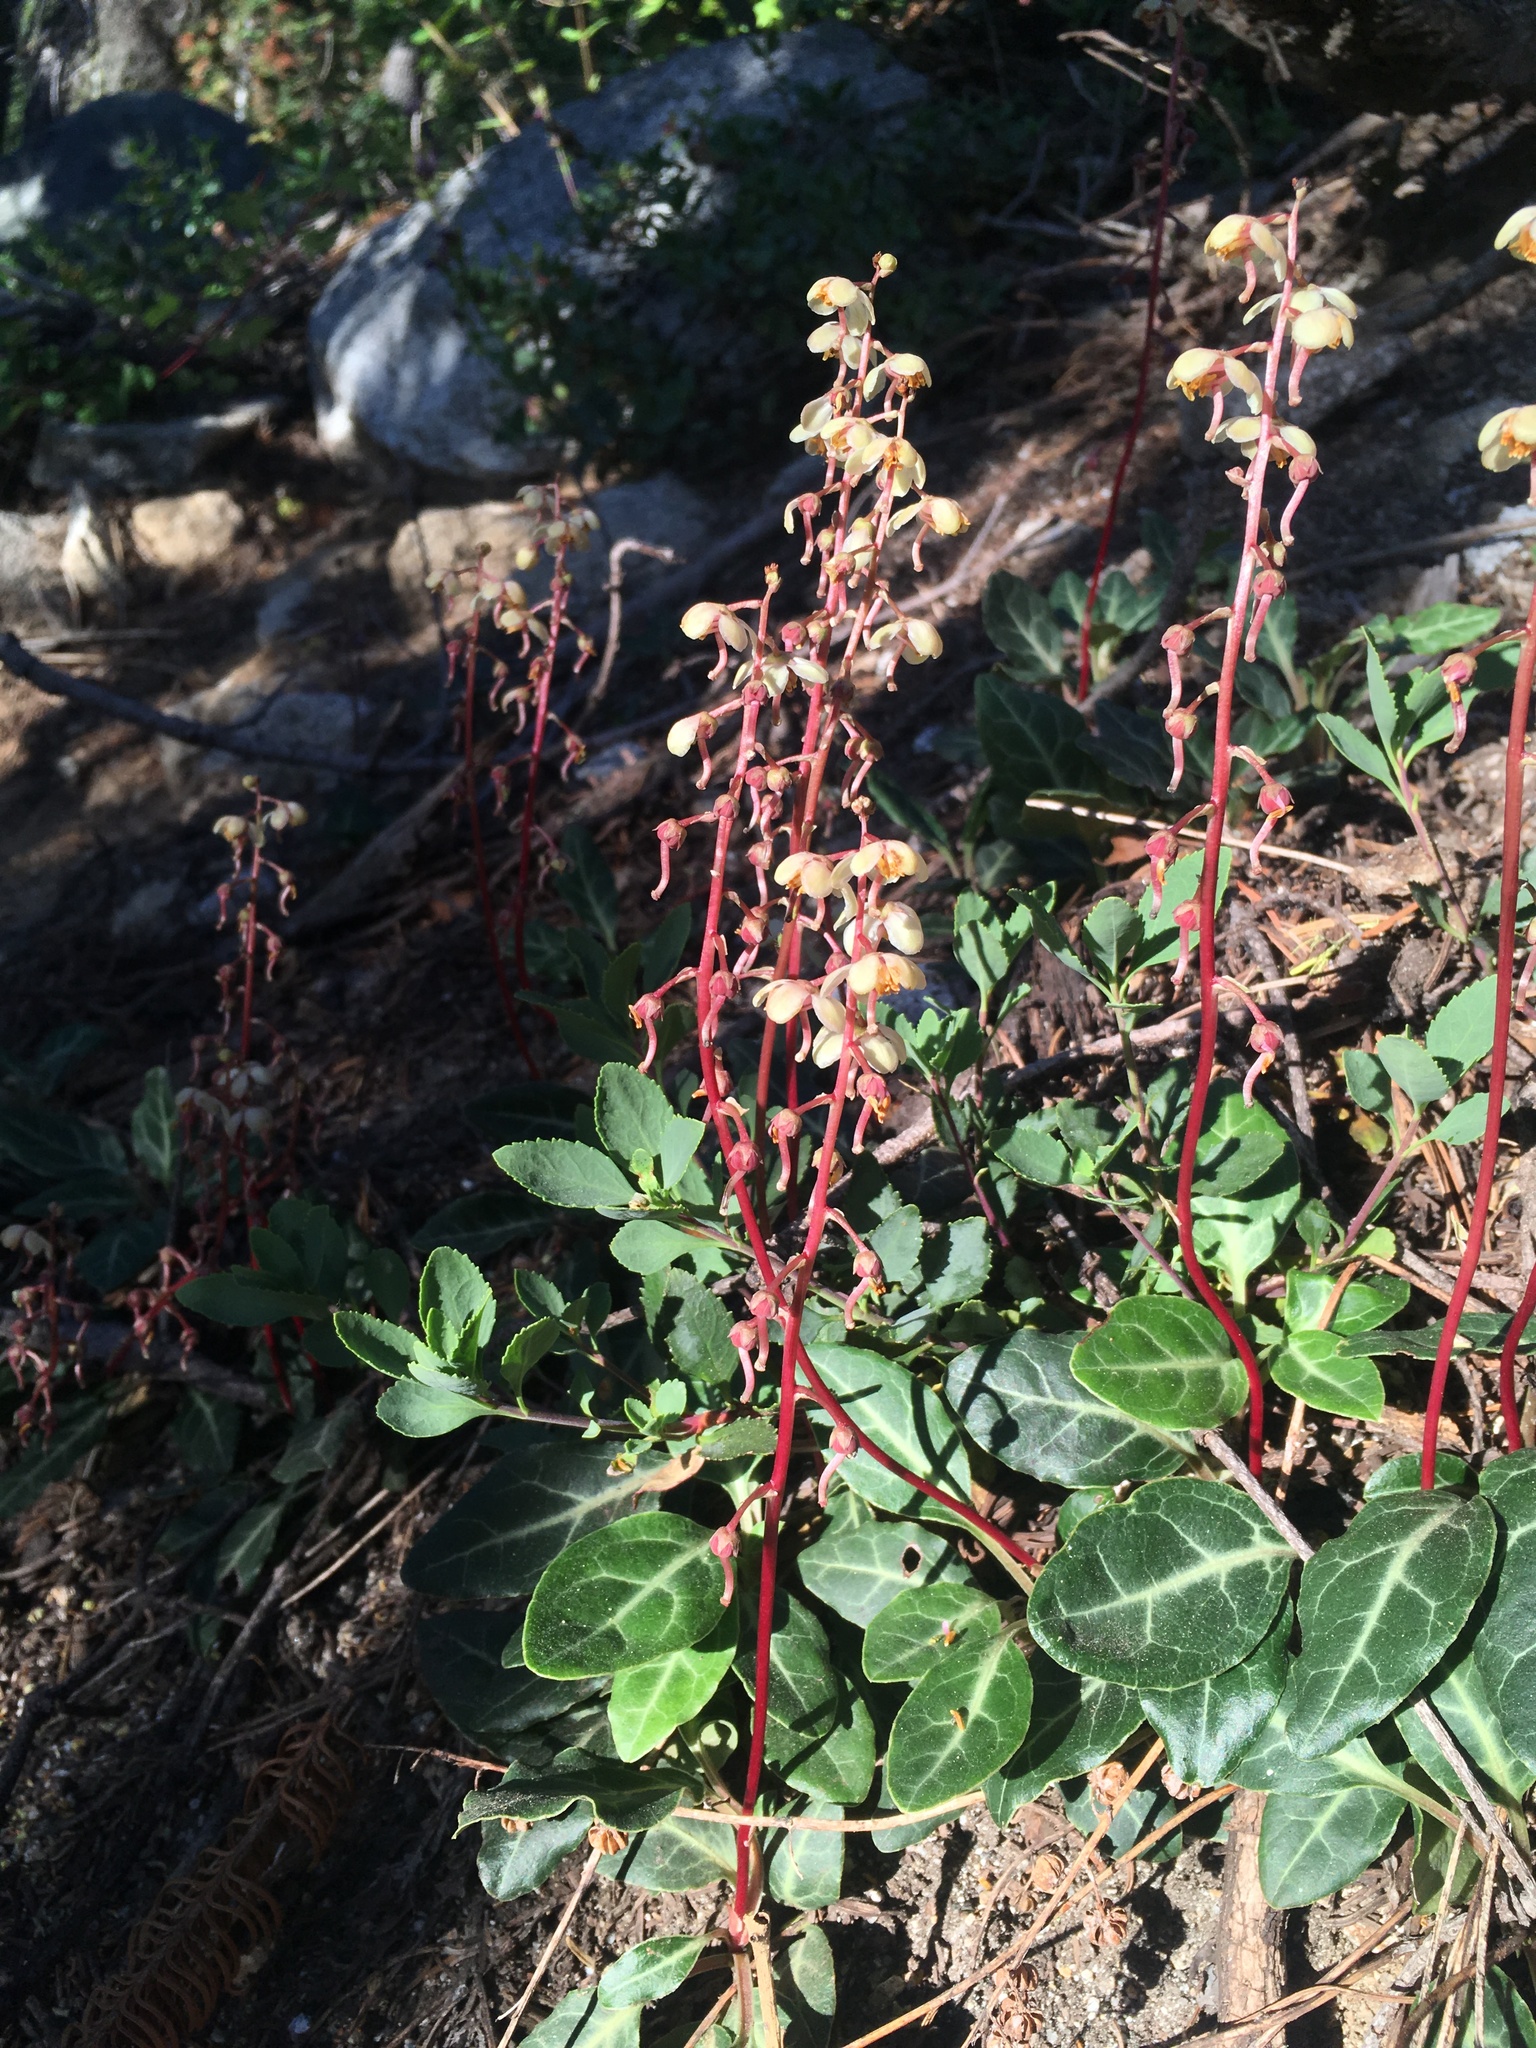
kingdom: Plantae
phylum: Tracheophyta
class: Magnoliopsida
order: Ericales
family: Ericaceae
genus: Pyrola
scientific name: Pyrola picta
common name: White-vein wintergreen
